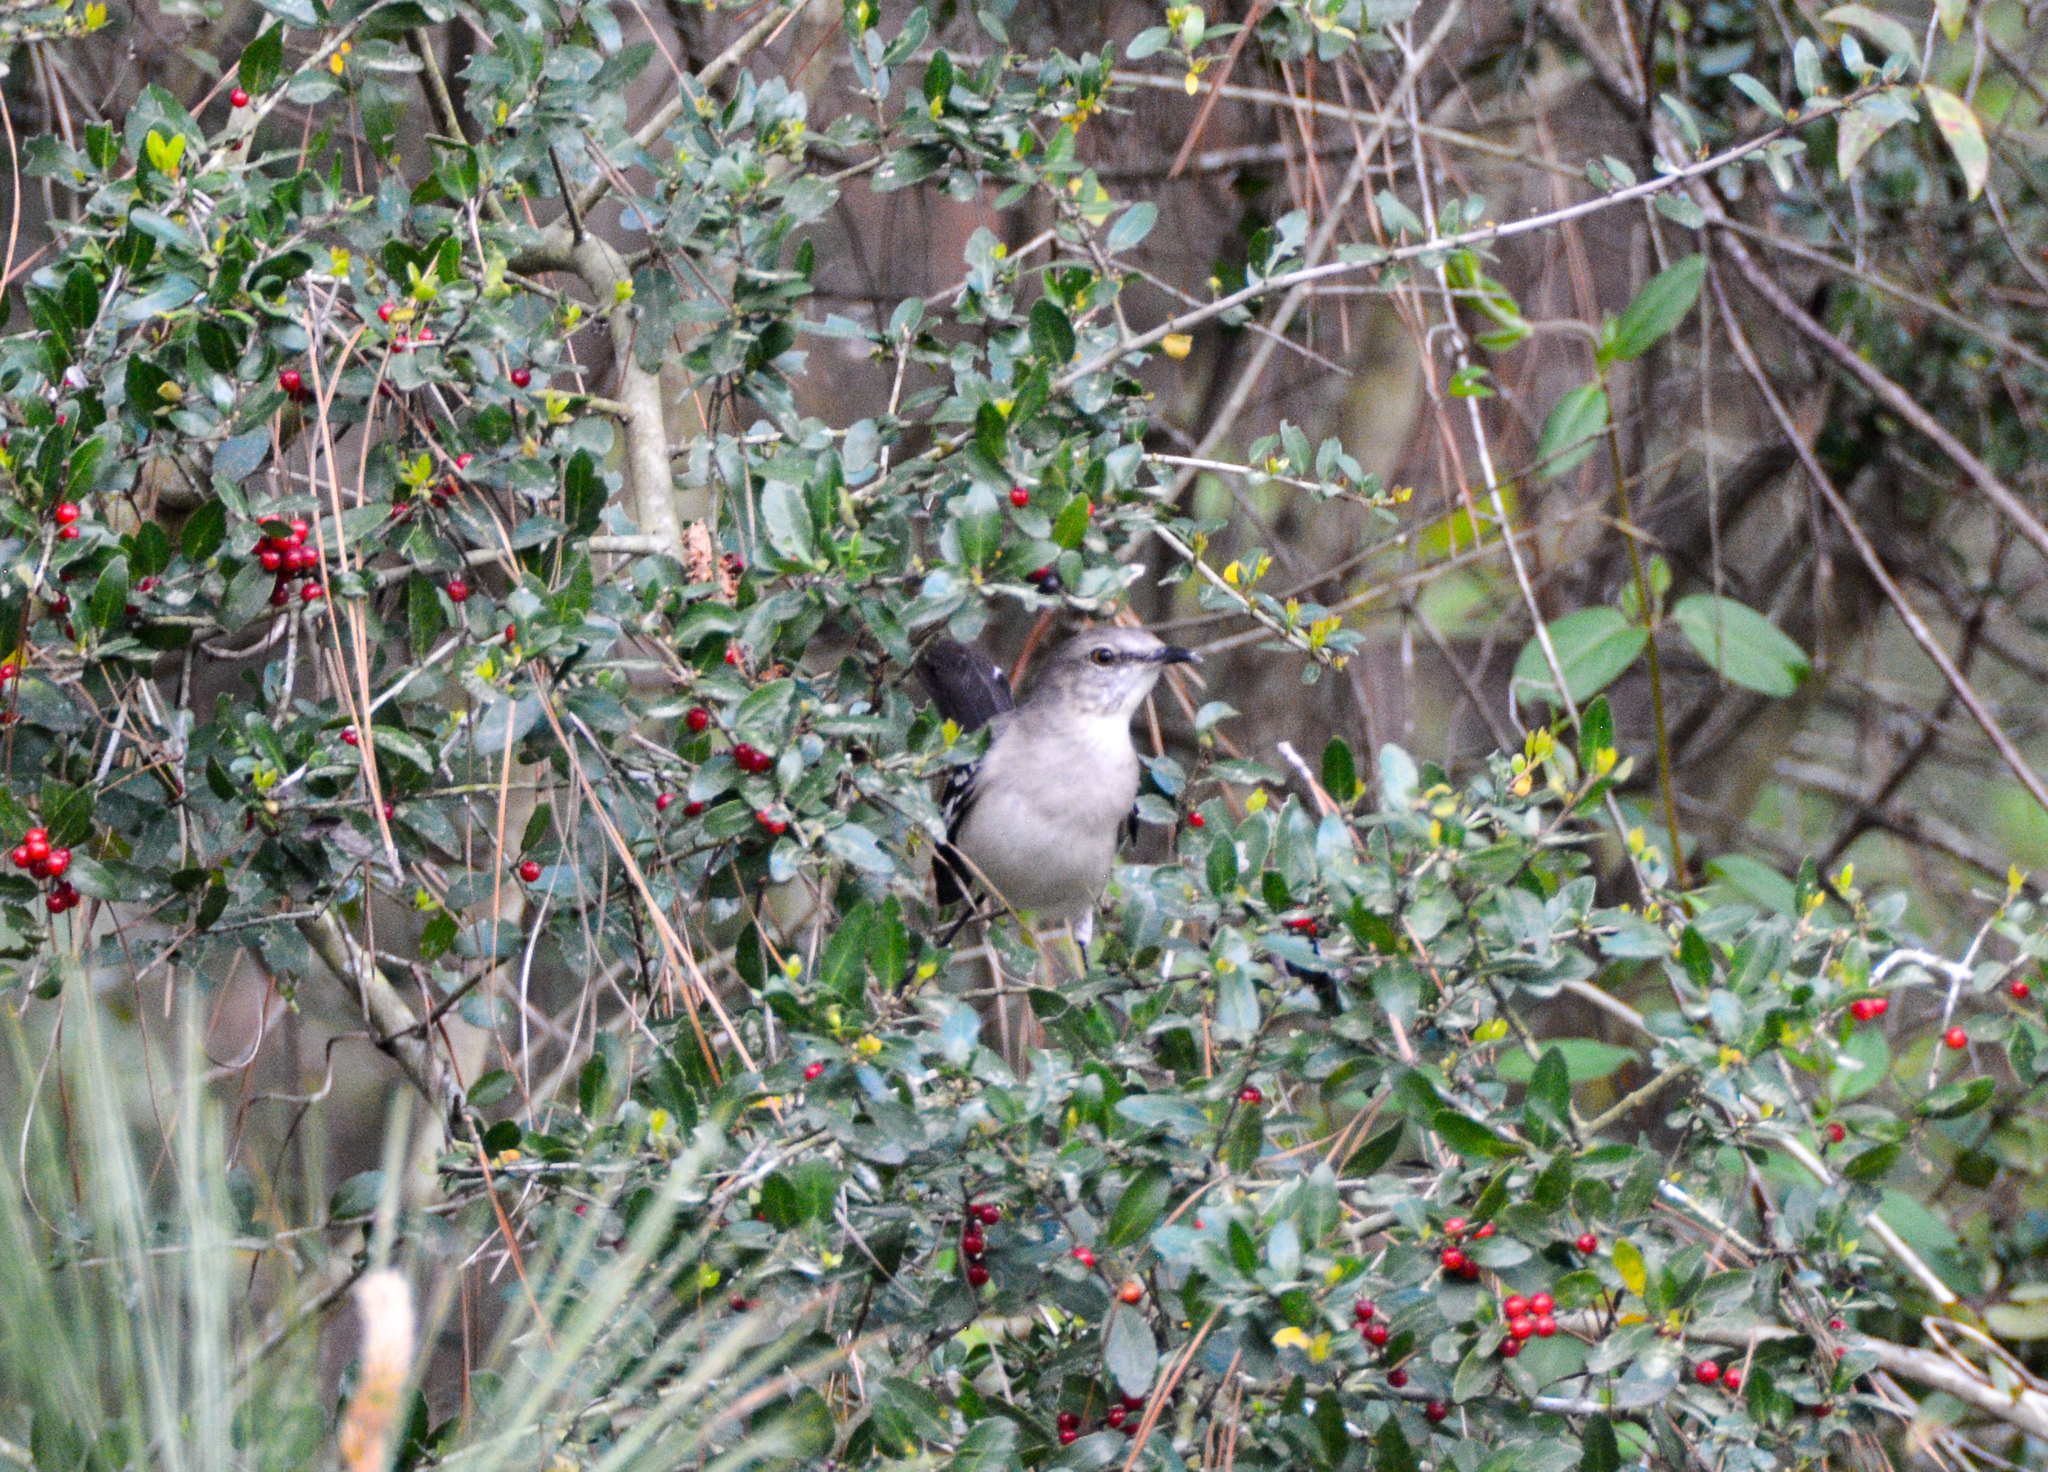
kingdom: Animalia
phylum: Chordata
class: Aves
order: Passeriformes
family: Mimidae
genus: Mimus
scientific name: Mimus polyglottos
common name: Northern mockingbird
